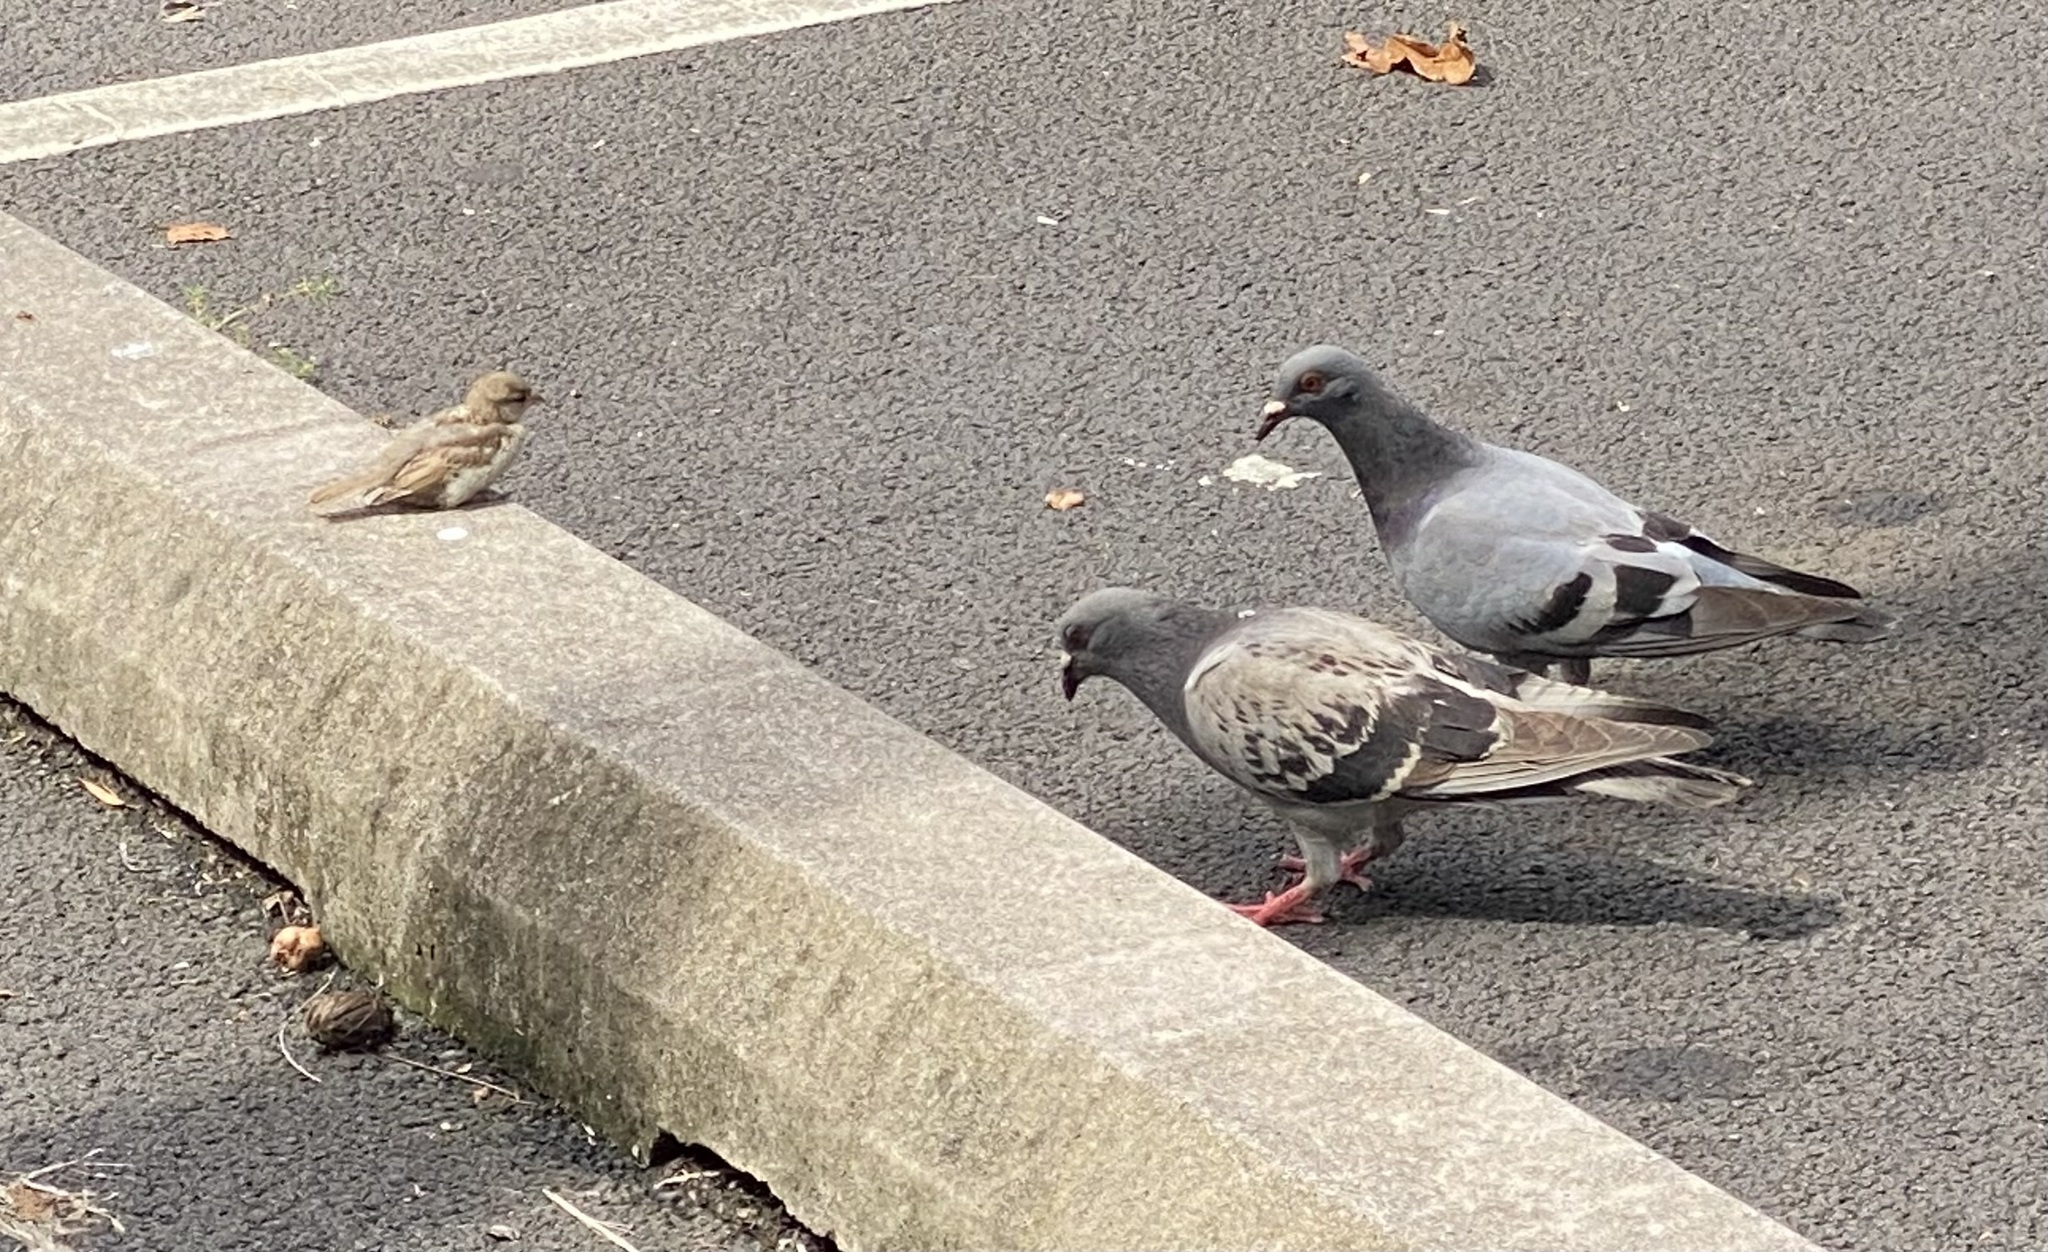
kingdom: Animalia
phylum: Chordata
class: Aves
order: Columbiformes
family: Columbidae
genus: Columba
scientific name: Columba livia
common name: Rock pigeon
